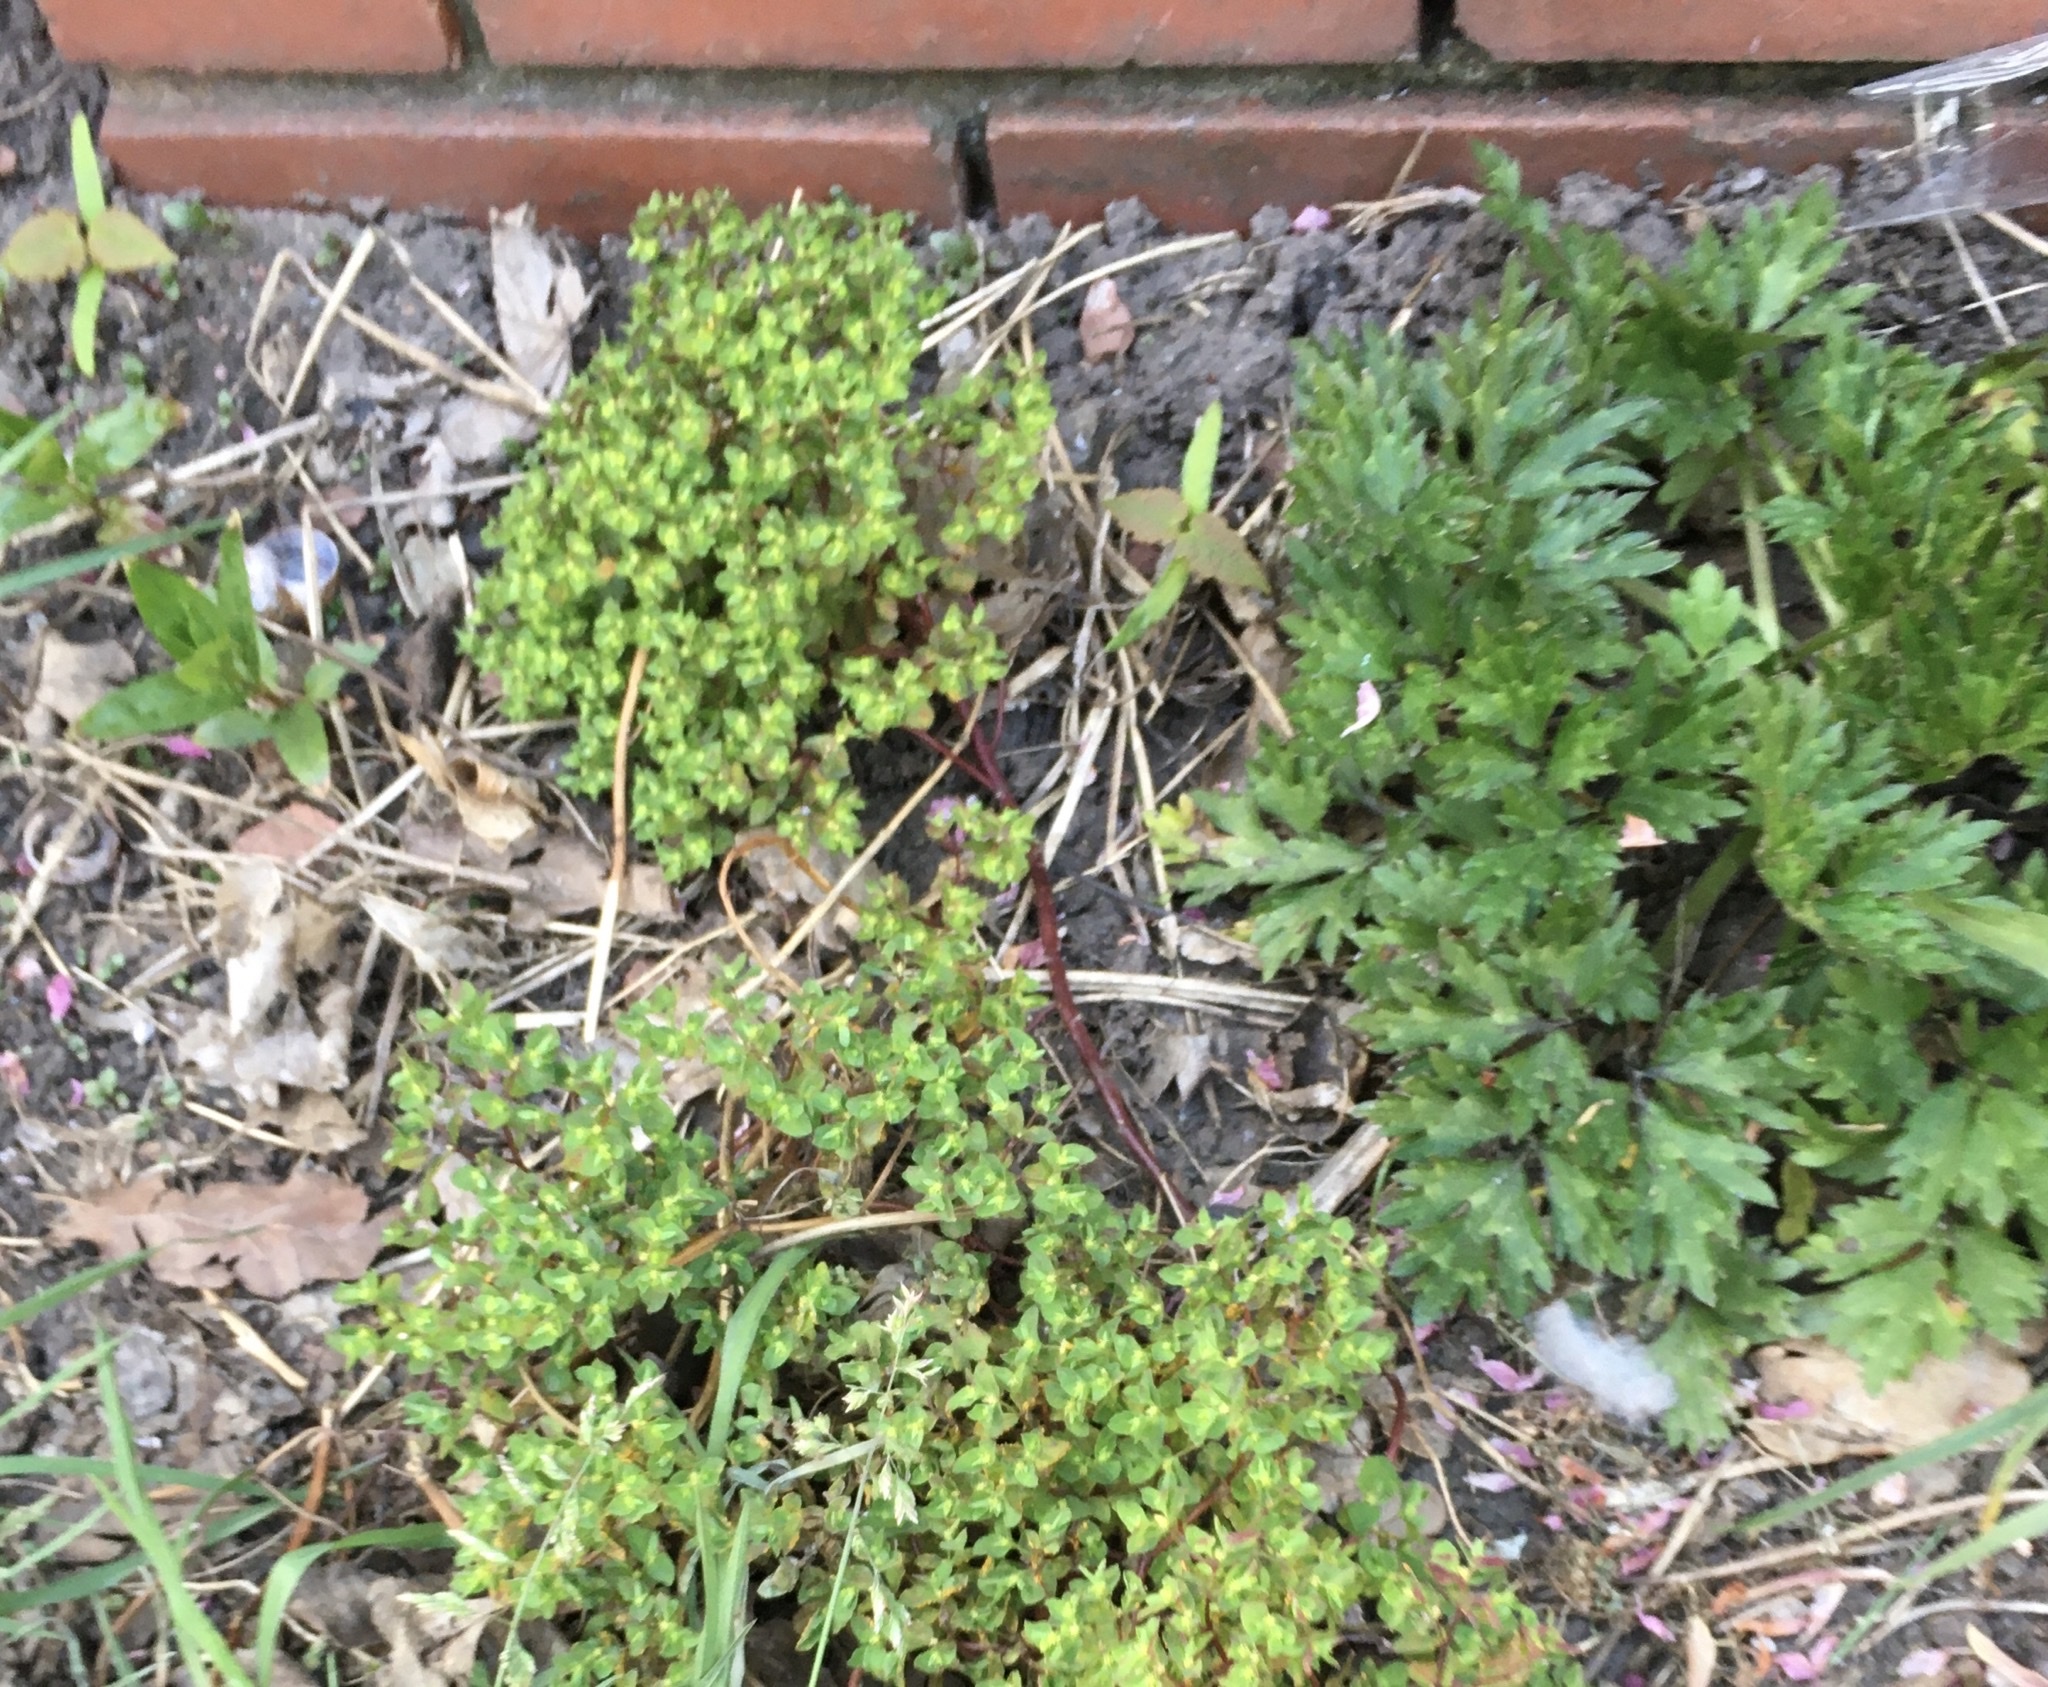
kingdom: Plantae
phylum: Tracheophyta
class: Magnoliopsida
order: Malpighiales
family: Euphorbiaceae
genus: Euphorbia
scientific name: Euphorbia peplus
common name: Petty spurge
